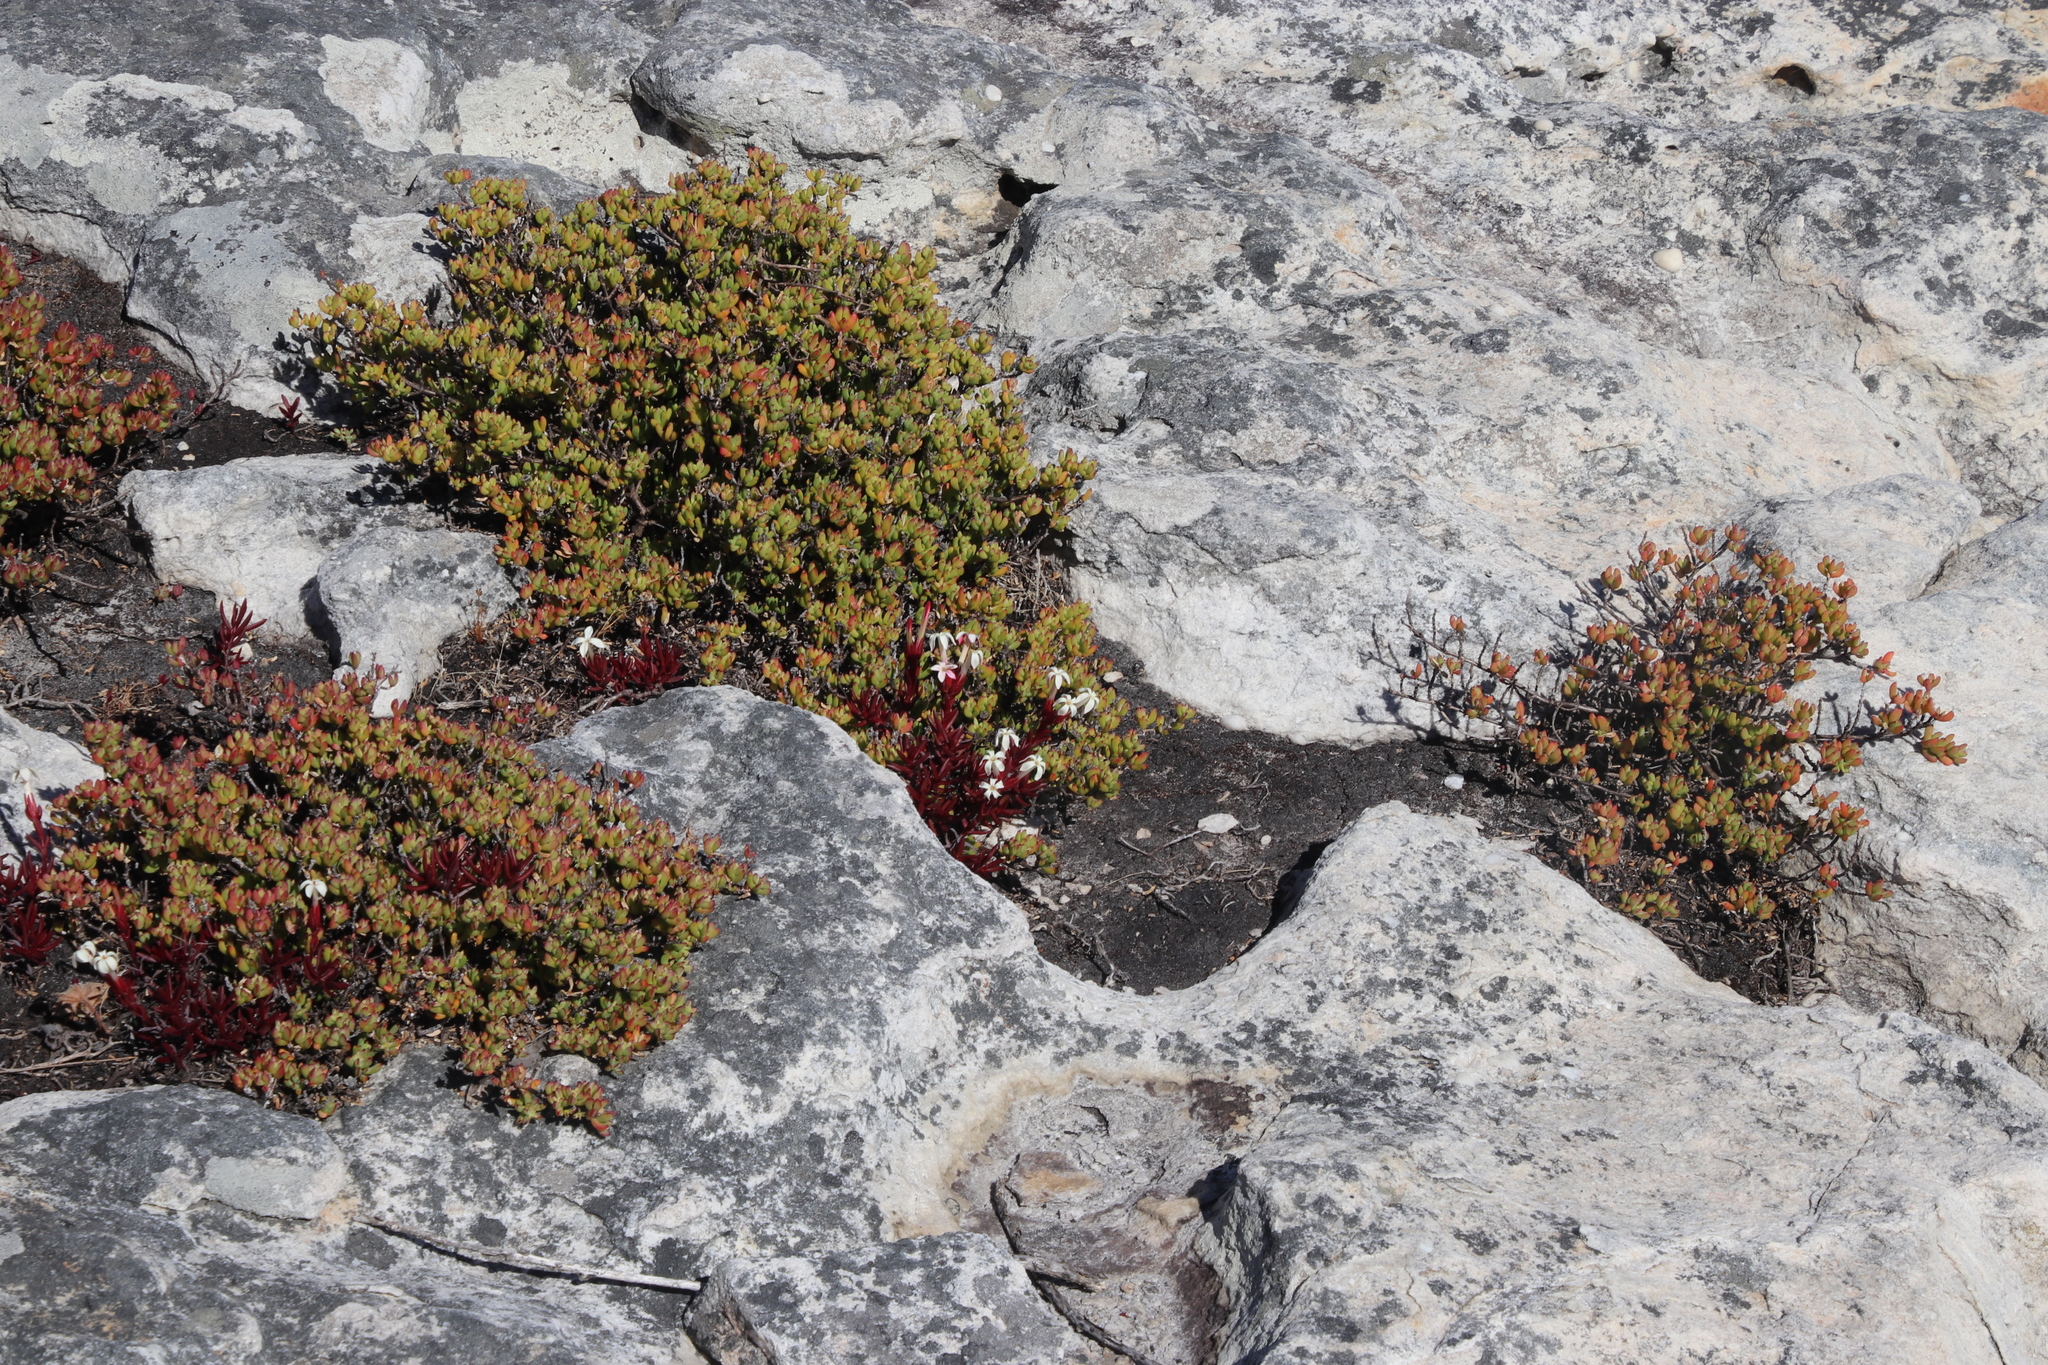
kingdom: Plantae
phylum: Tracheophyta
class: Magnoliopsida
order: Saxifragales
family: Crassulaceae
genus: Crassula
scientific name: Crassula obtusa
